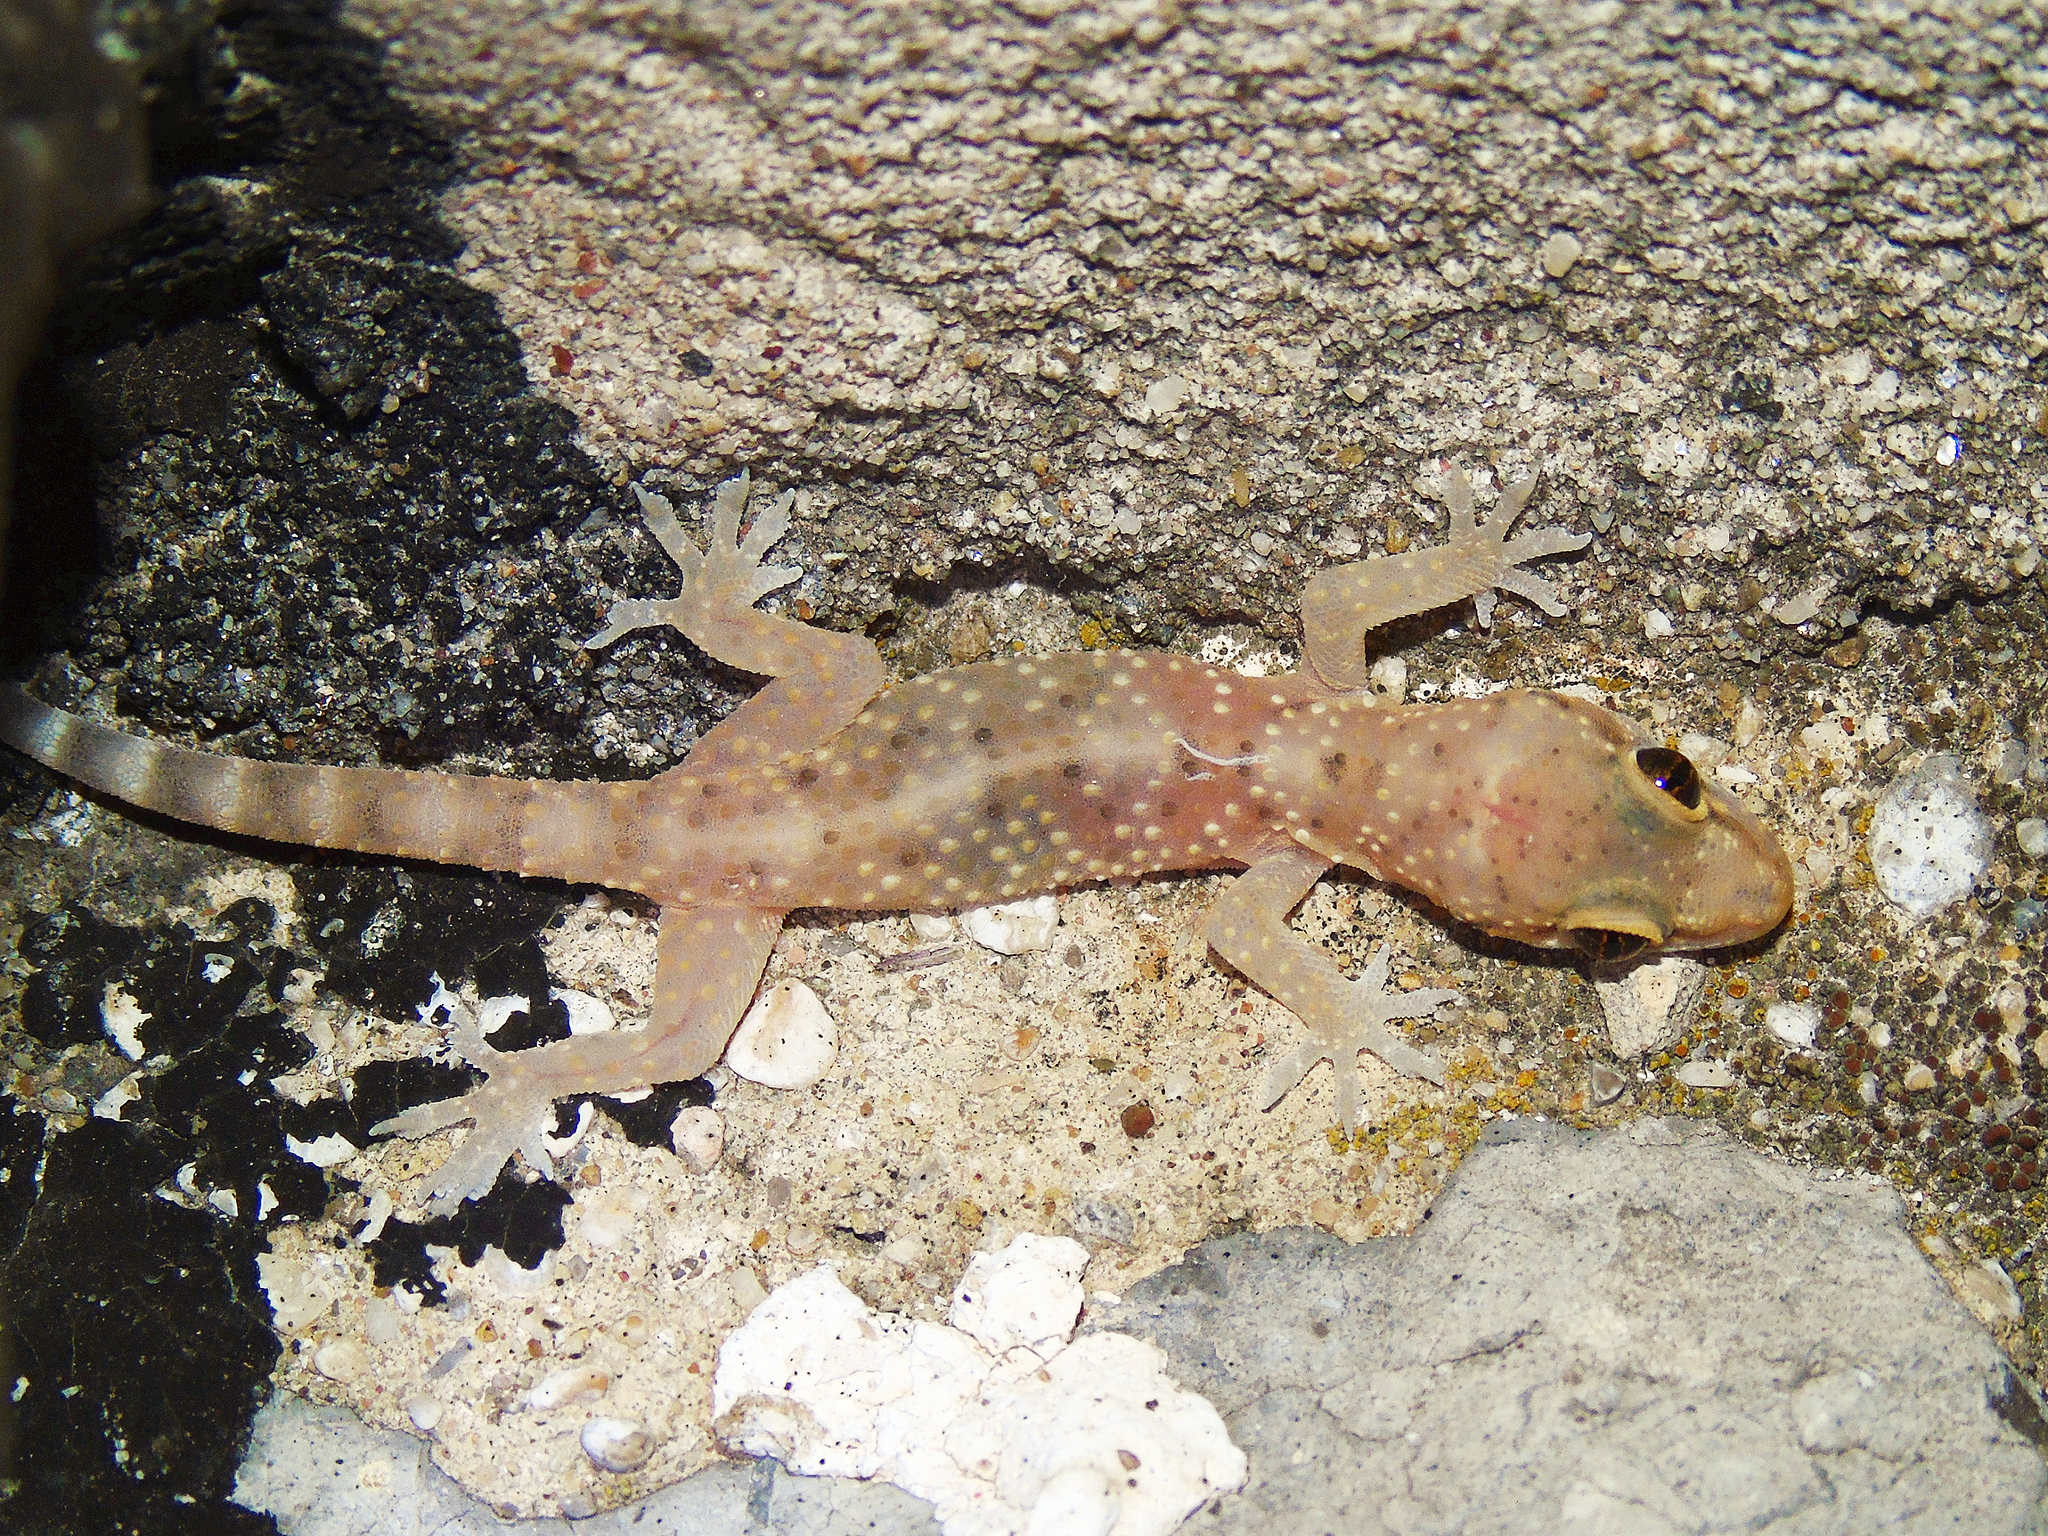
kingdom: Animalia
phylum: Chordata
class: Squamata
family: Gekkonidae
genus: Hemidactylus
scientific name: Hemidactylus turcicus
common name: Turkish gecko
